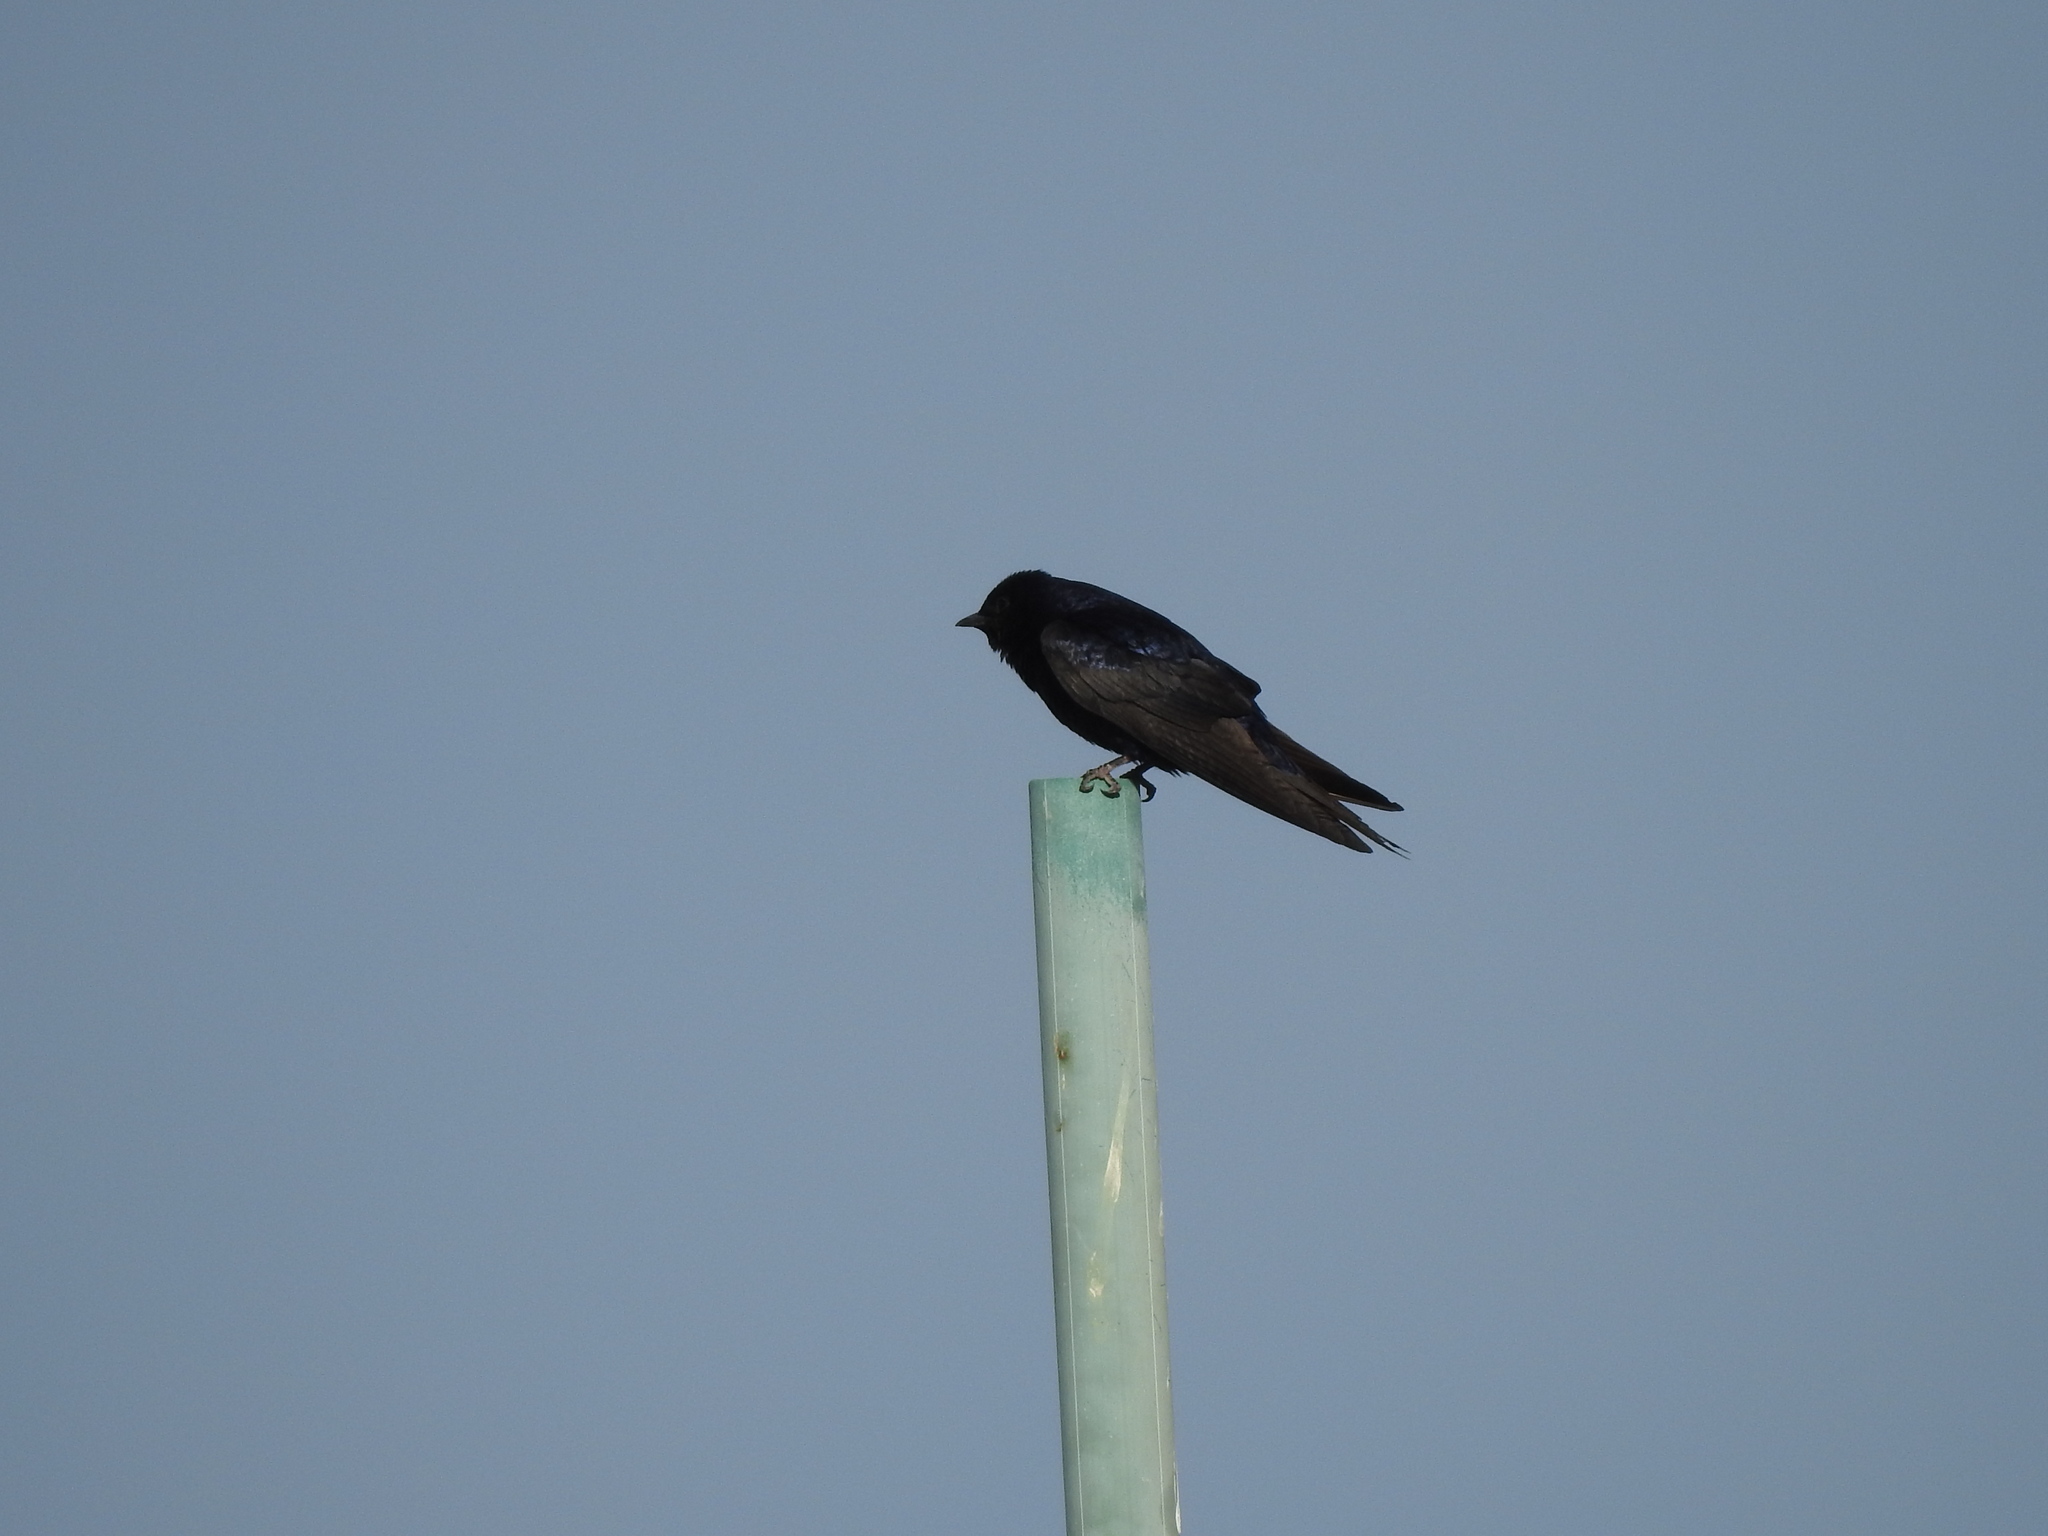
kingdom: Animalia
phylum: Chordata
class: Aves
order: Passeriformes
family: Hirundinidae
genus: Progne
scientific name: Progne elegans
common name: Southern martin
